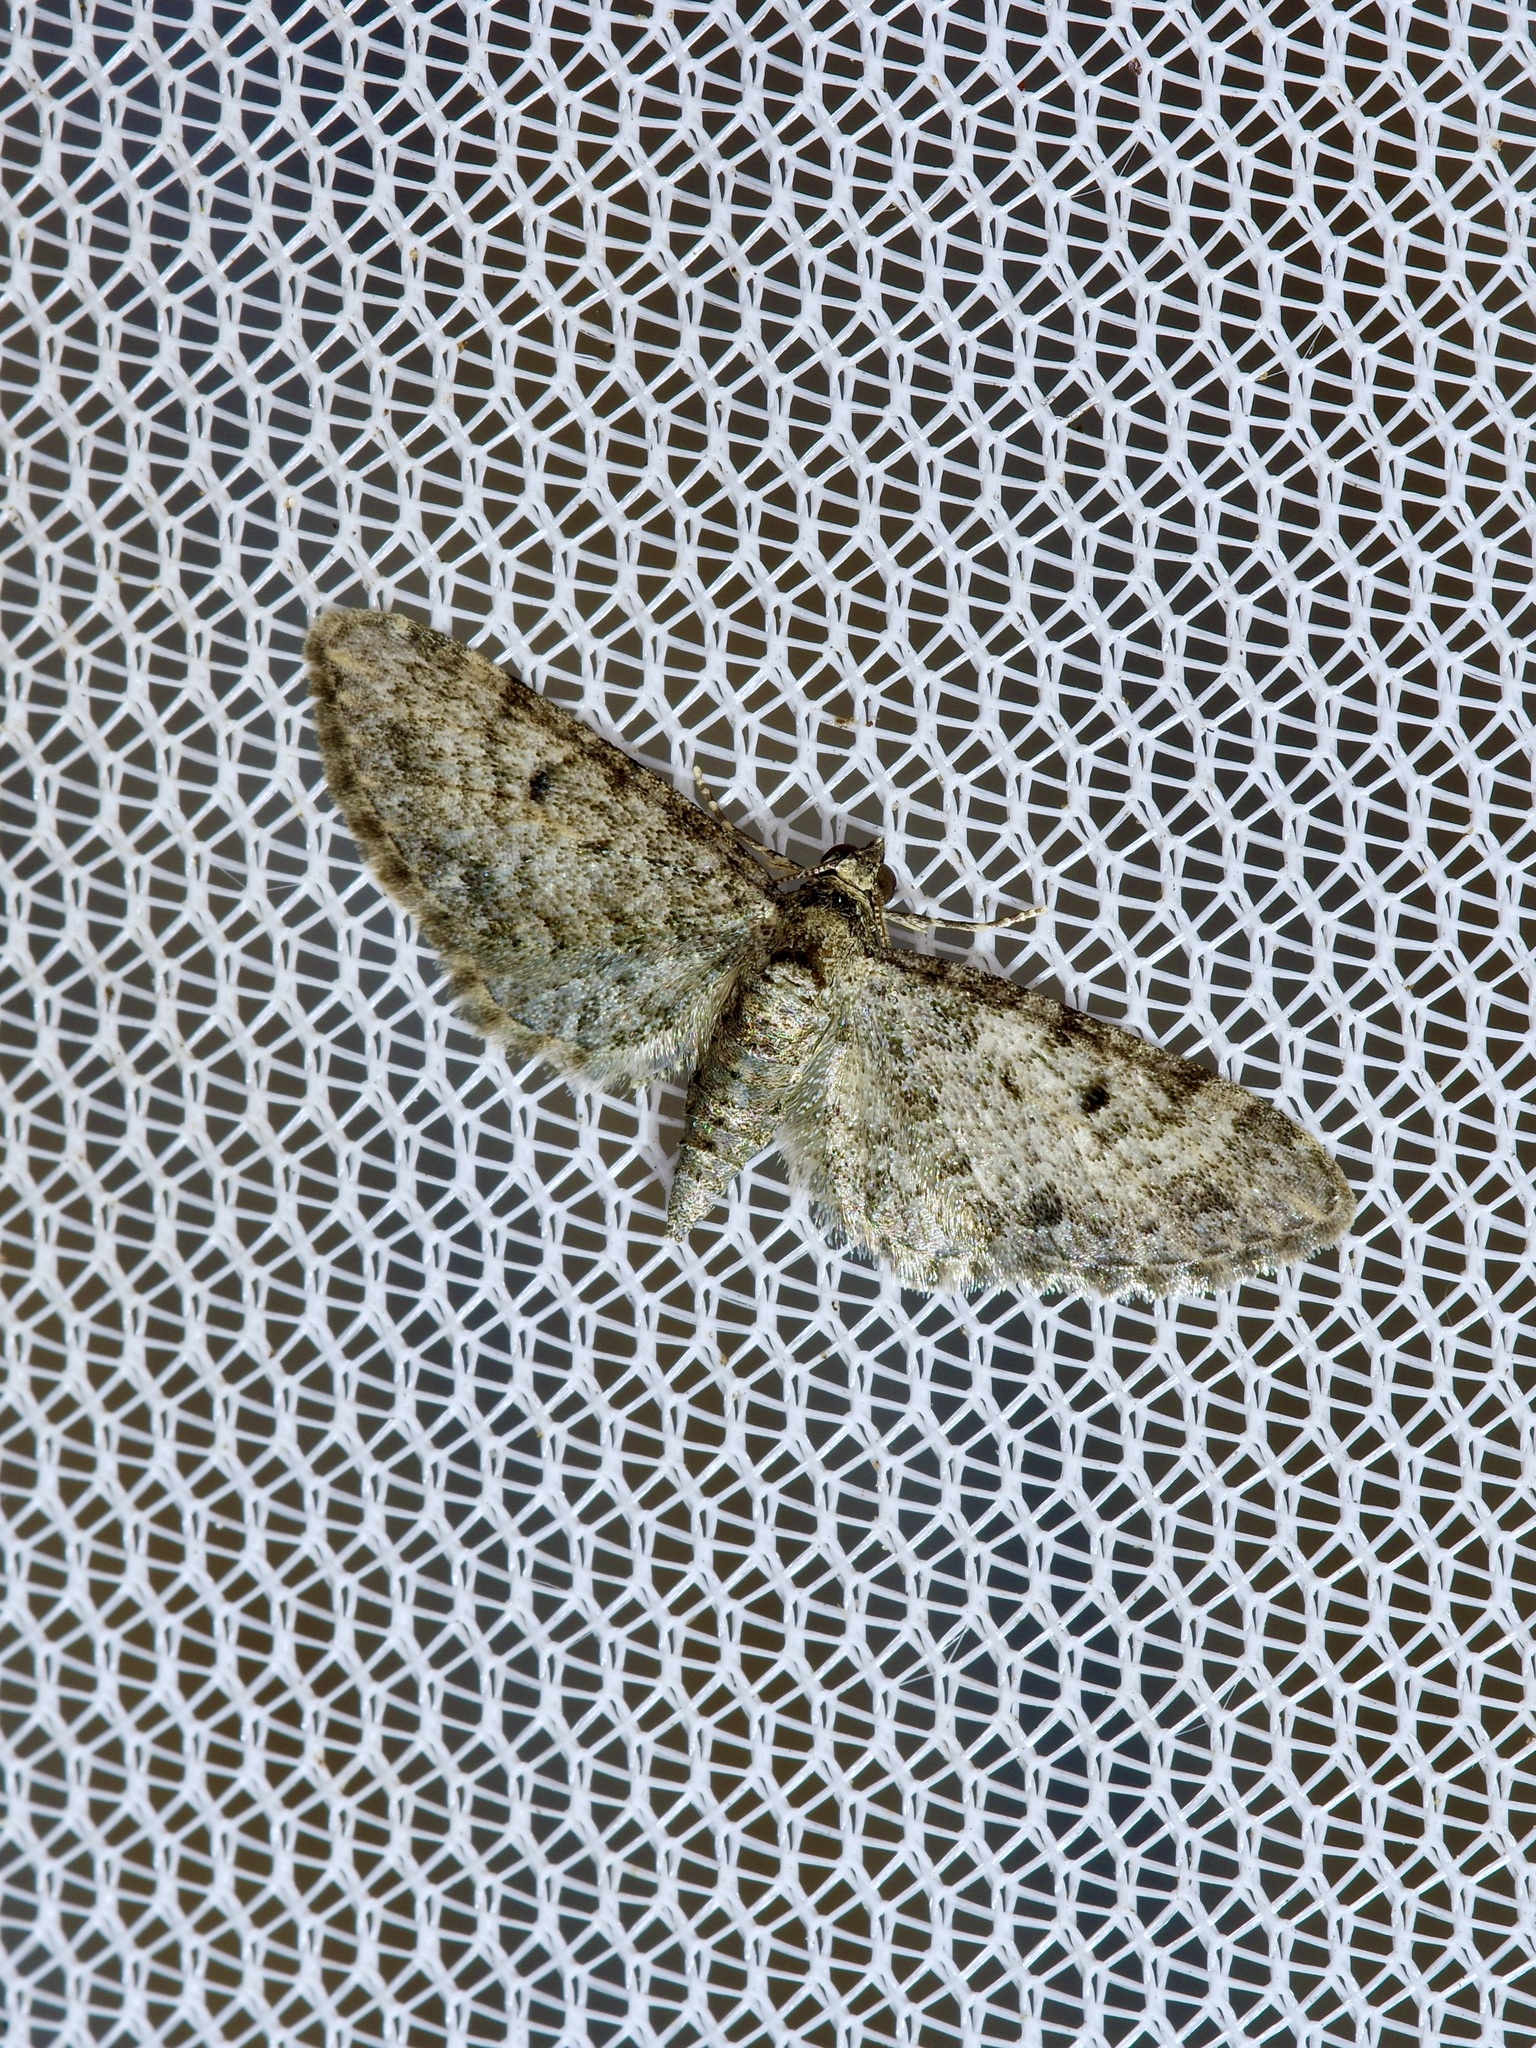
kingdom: Animalia
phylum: Arthropoda
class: Insecta
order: Lepidoptera
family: Geometridae
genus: Eupithecia
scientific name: Eupithecia miserulata
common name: Common eupithecia
